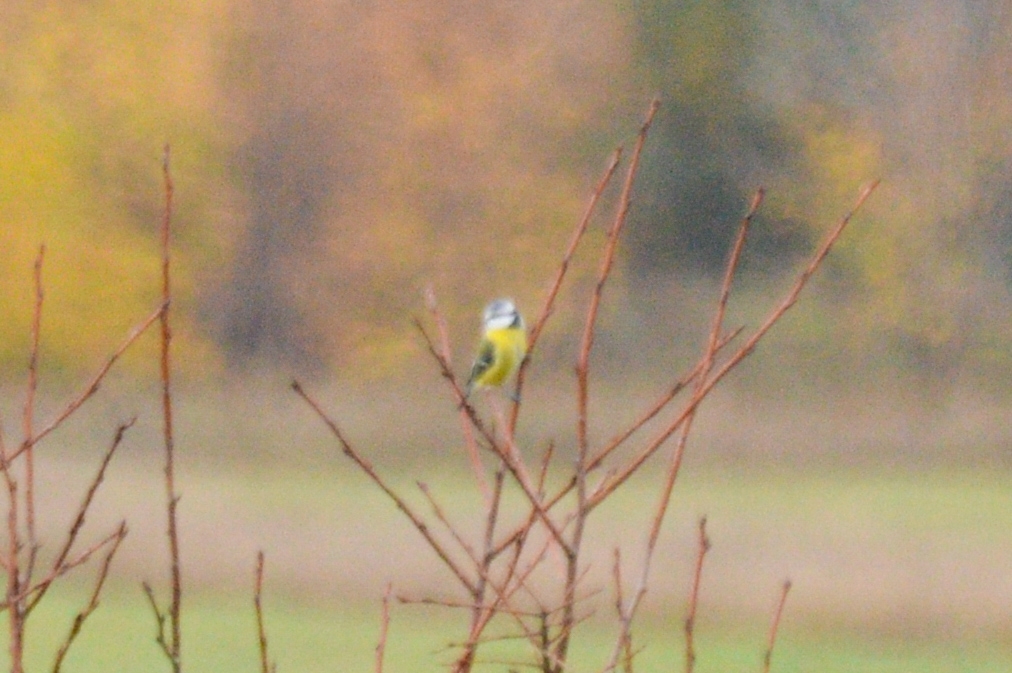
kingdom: Animalia
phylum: Chordata
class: Aves
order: Passeriformes
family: Paridae
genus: Cyanistes
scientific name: Cyanistes caeruleus
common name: Eurasian blue tit
